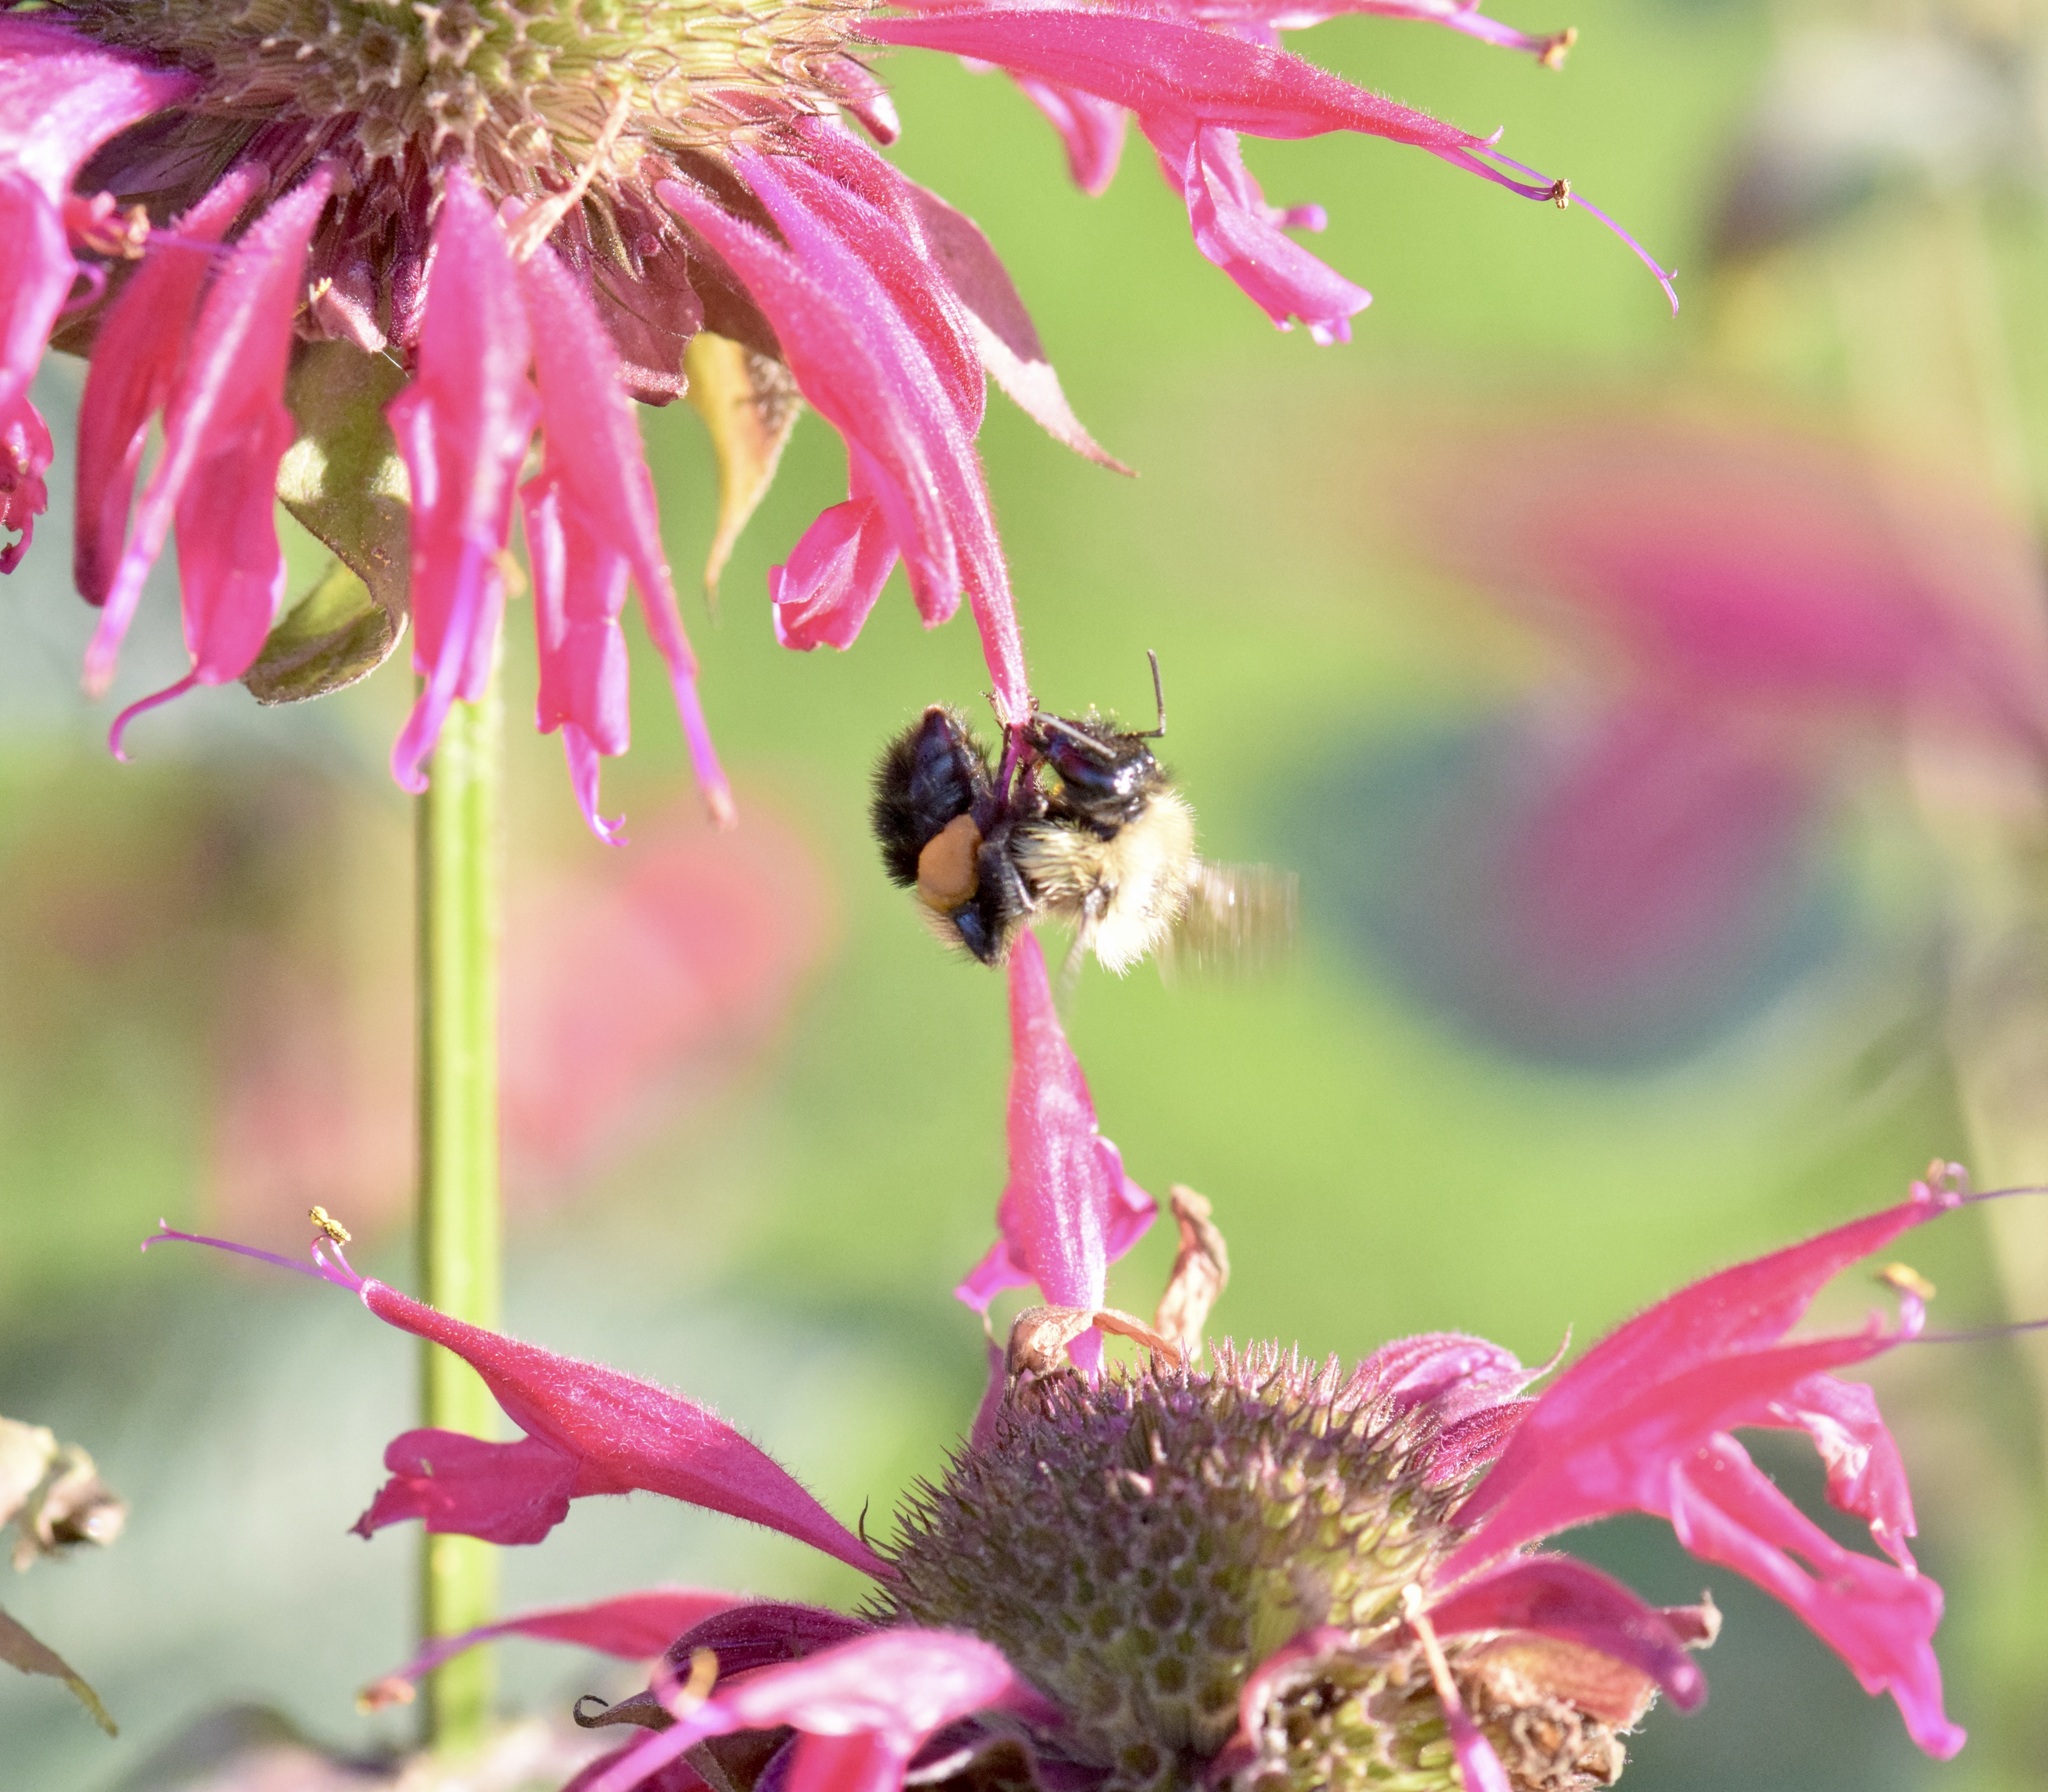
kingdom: Animalia
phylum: Arthropoda
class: Insecta
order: Hymenoptera
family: Apidae
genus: Bombus
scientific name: Bombus vagans
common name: Half-black bumble bee
